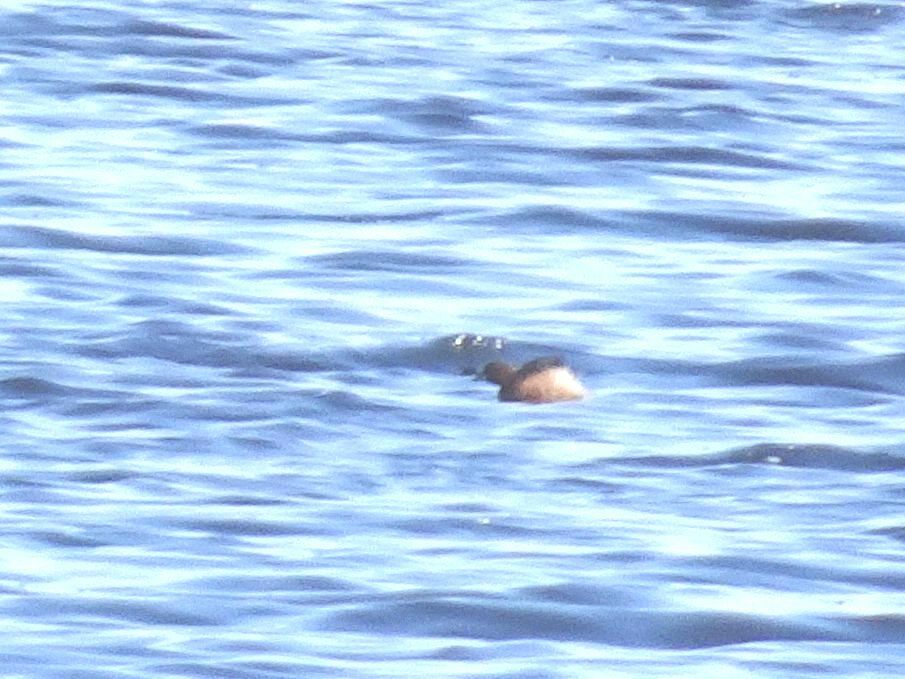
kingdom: Animalia
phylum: Chordata
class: Aves
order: Podicipediformes
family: Podicipedidae
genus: Tachybaptus
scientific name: Tachybaptus ruficollis
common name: Little grebe
